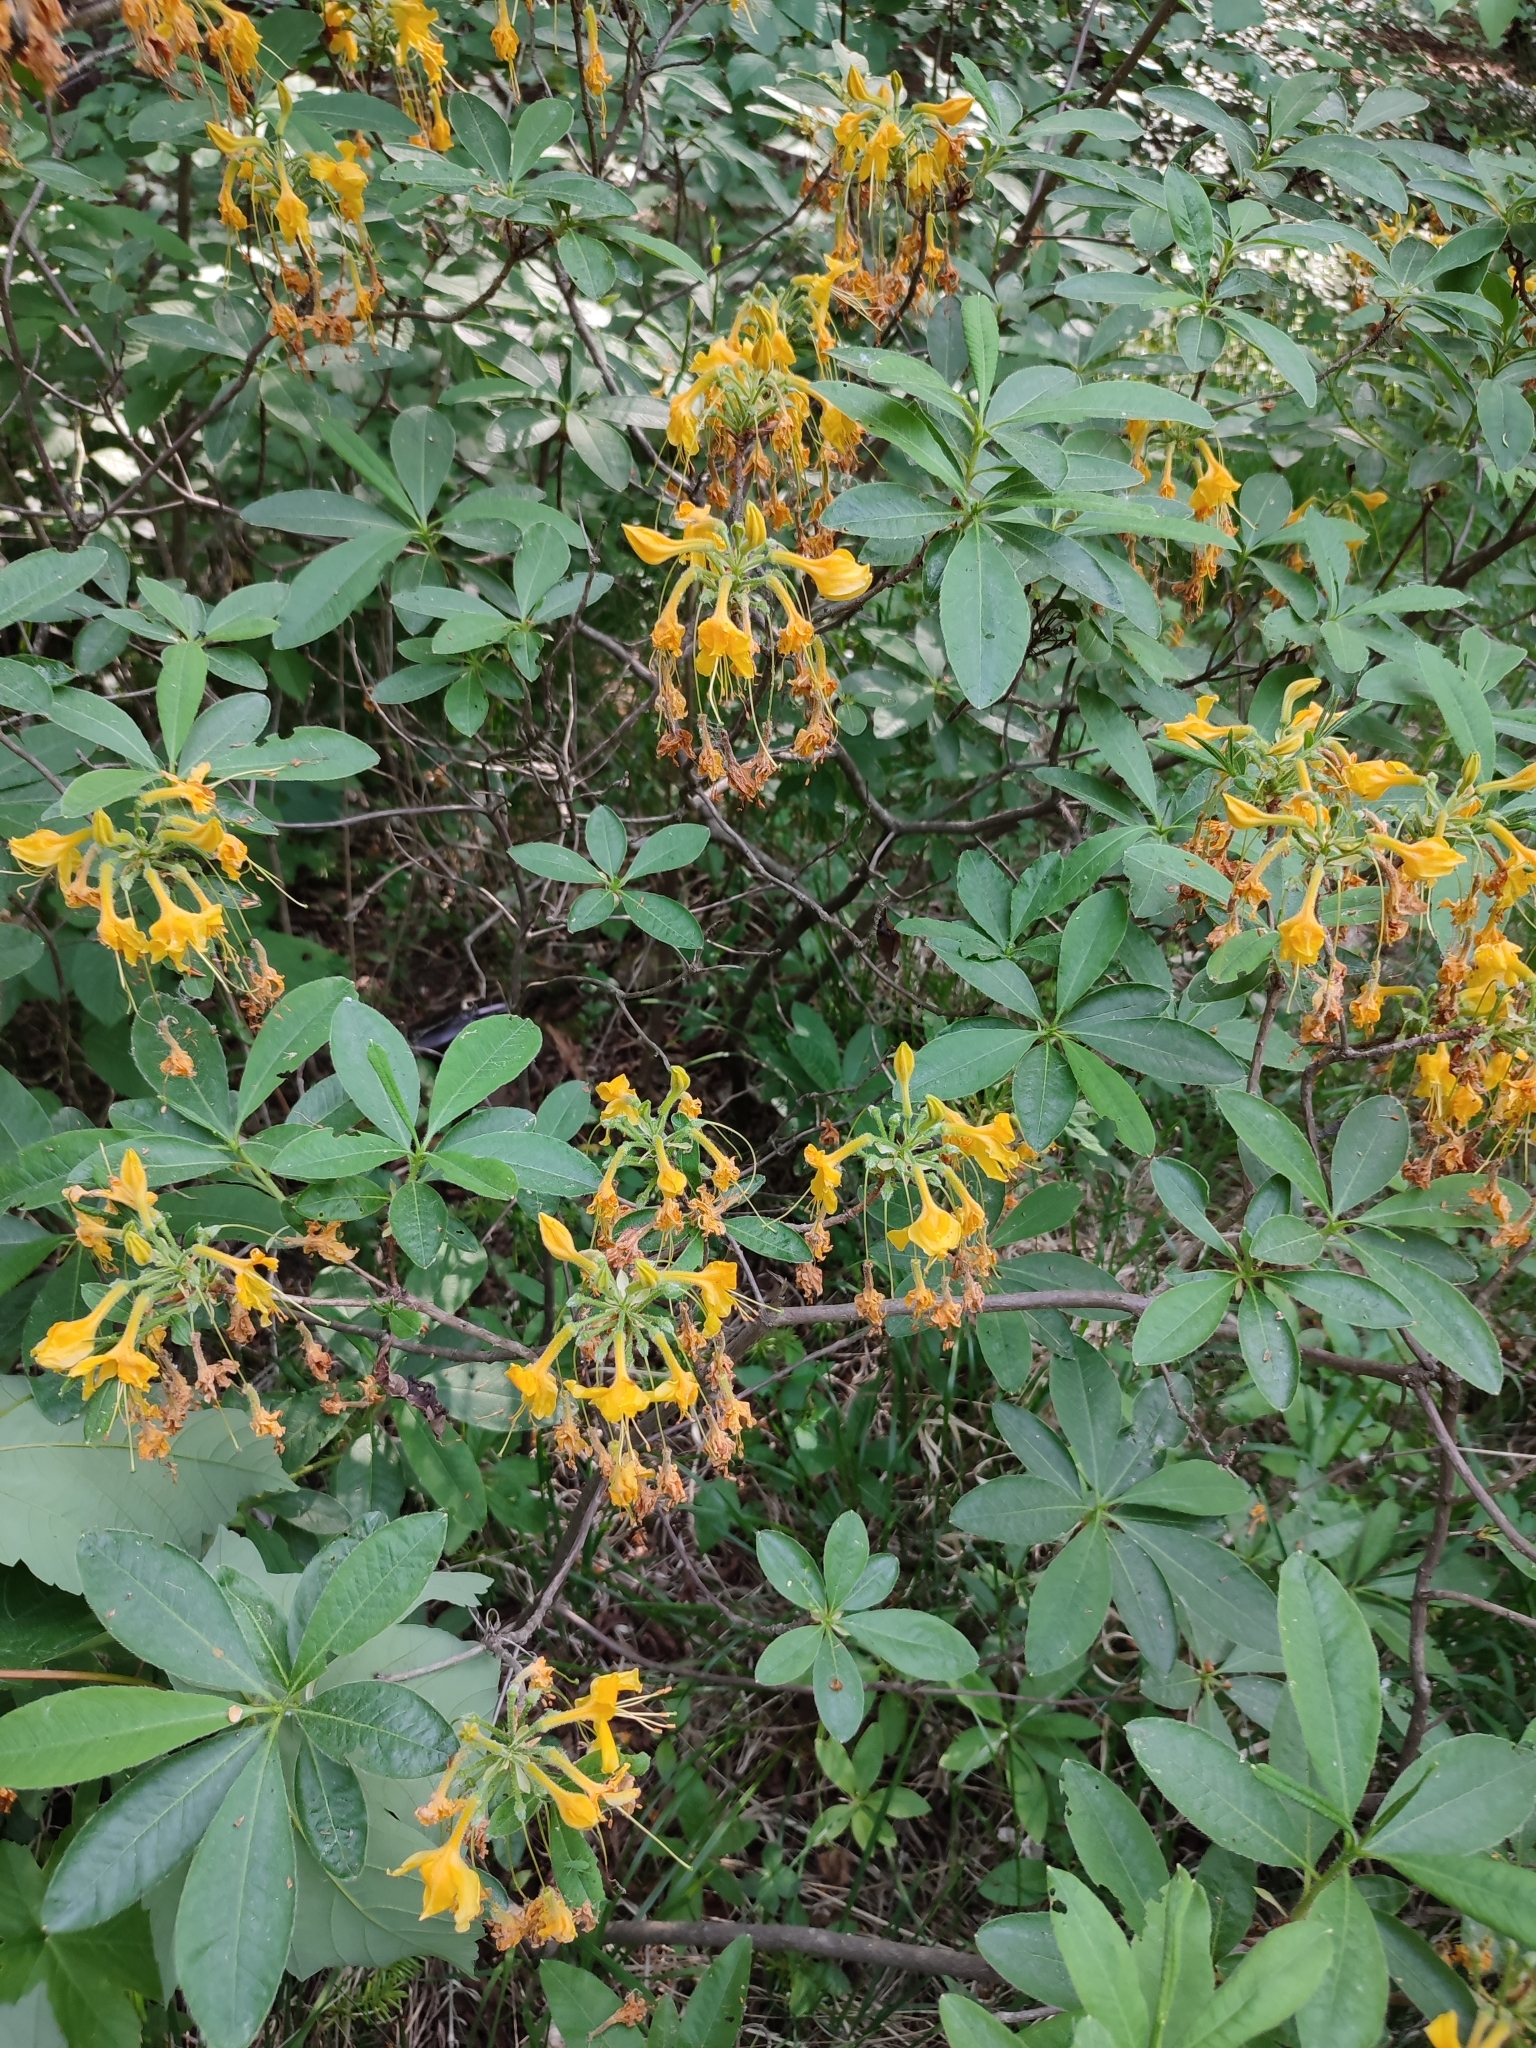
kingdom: Plantae
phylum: Tracheophyta
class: Magnoliopsida
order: Ericales
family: Ericaceae
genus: Rhododendron
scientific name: Rhododendron luteum
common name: Yellow azalea
